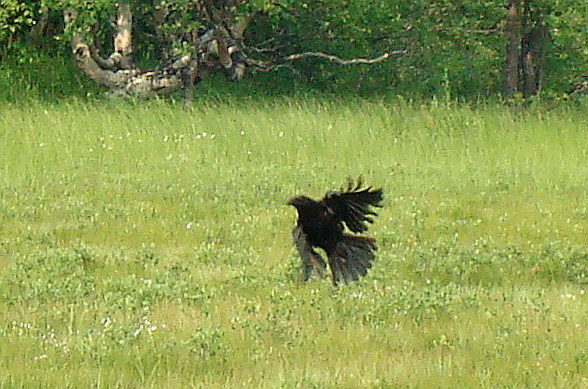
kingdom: Animalia
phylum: Chordata
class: Aves
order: Passeriformes
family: Corvidae
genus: Corvus
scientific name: Corvus corone
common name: Carrion crow
